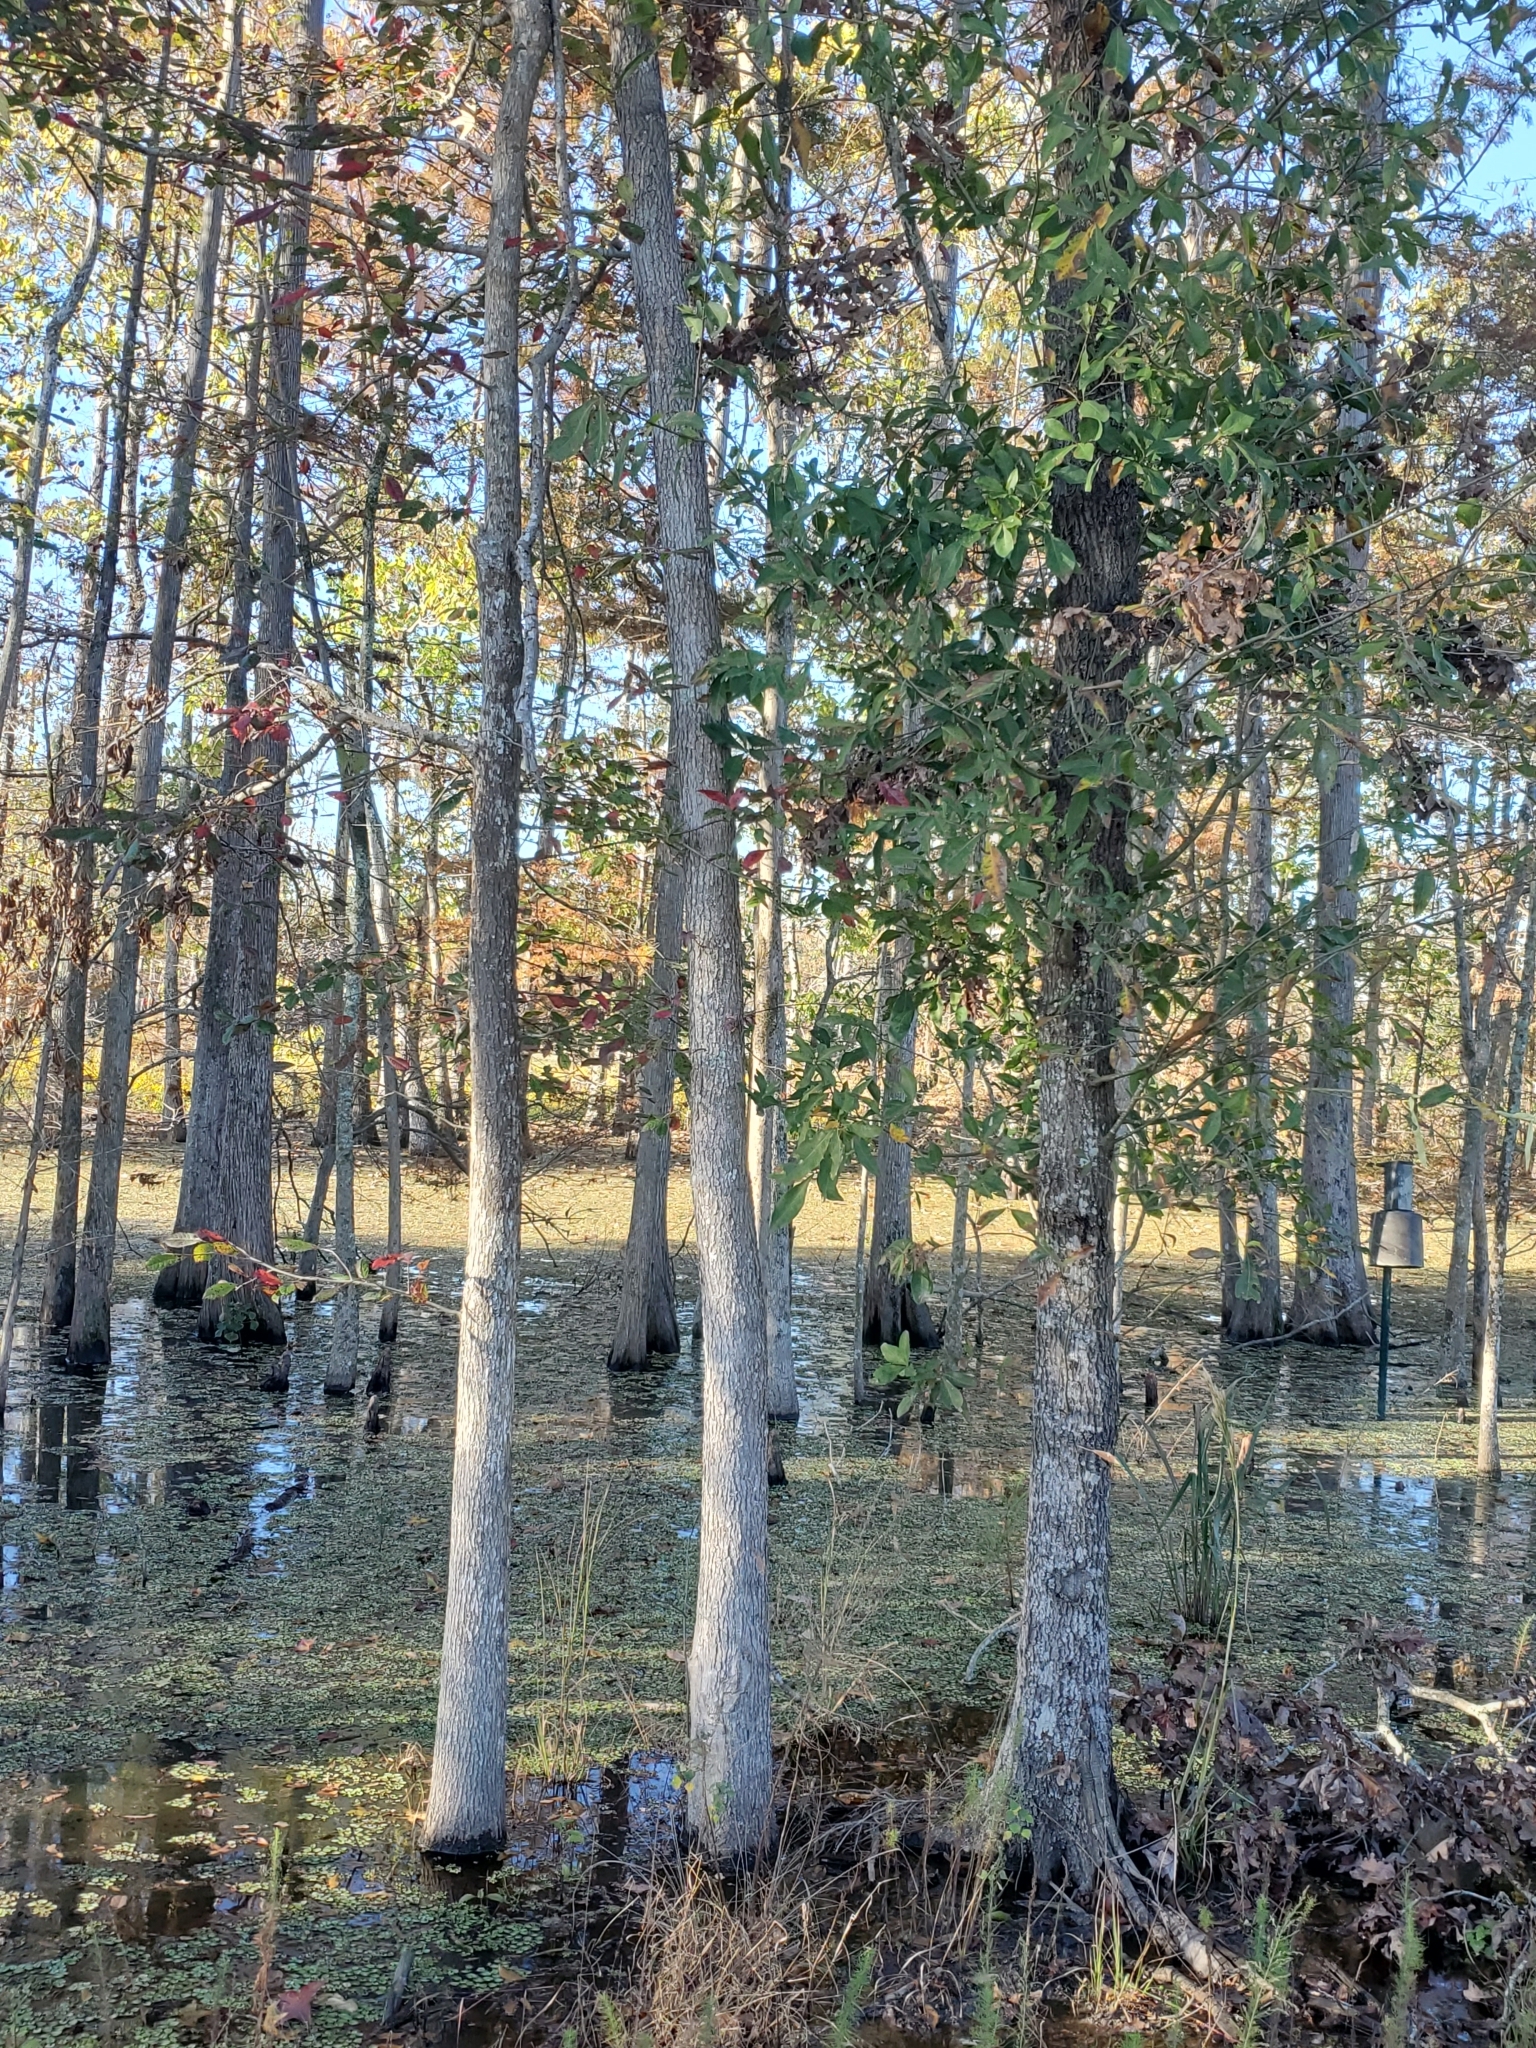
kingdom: Plantae
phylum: Tracheophyta
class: Magnoliopsida
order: Cornales
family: Nyssaceae
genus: Nyssa
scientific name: Nyssa aquatica
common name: Swamp tupelo
